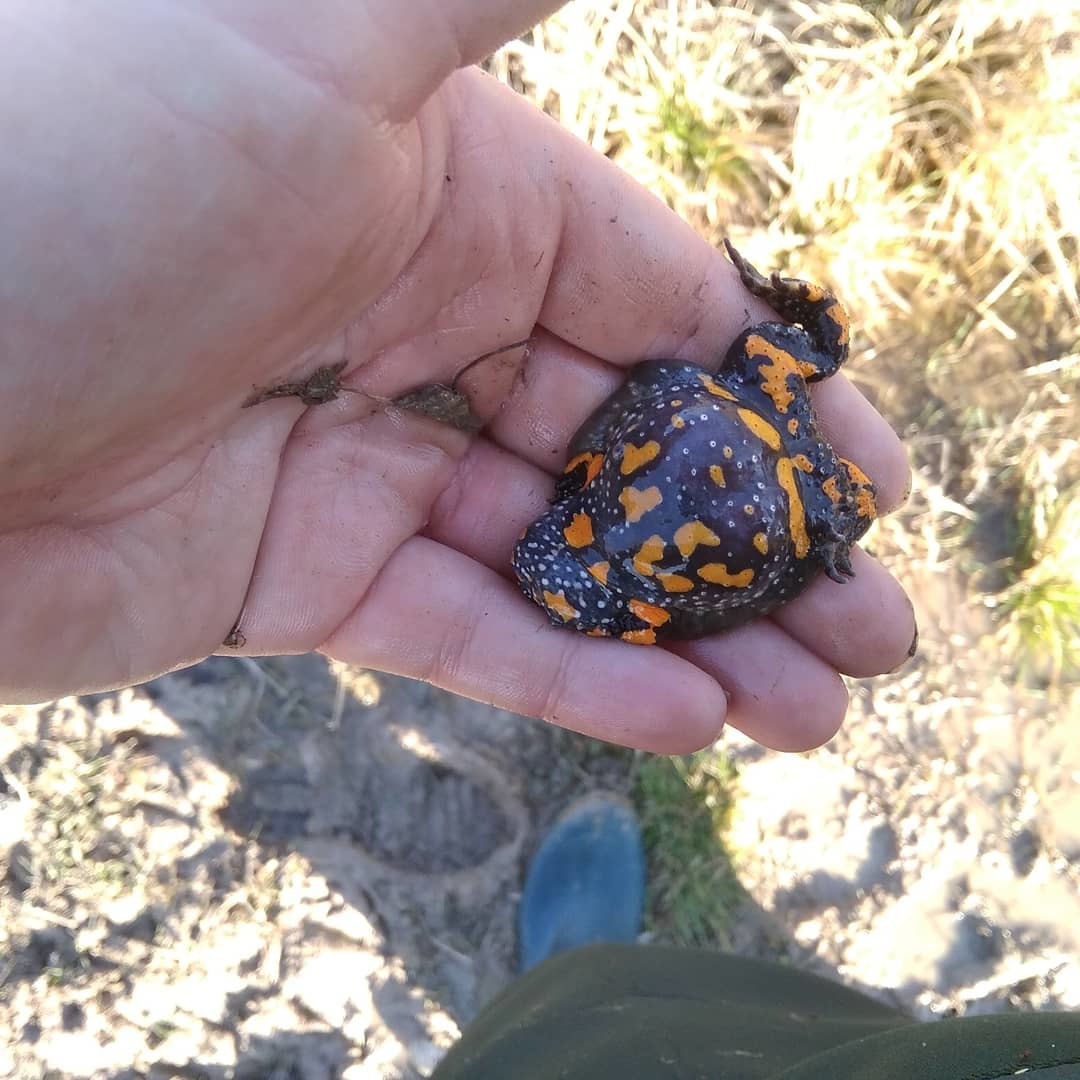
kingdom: Animalia
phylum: Chordata
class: Amphibia
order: Anura
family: Bombinatoridae
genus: Bombina
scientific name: Bombina bombina
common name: Fire-bellied toad
